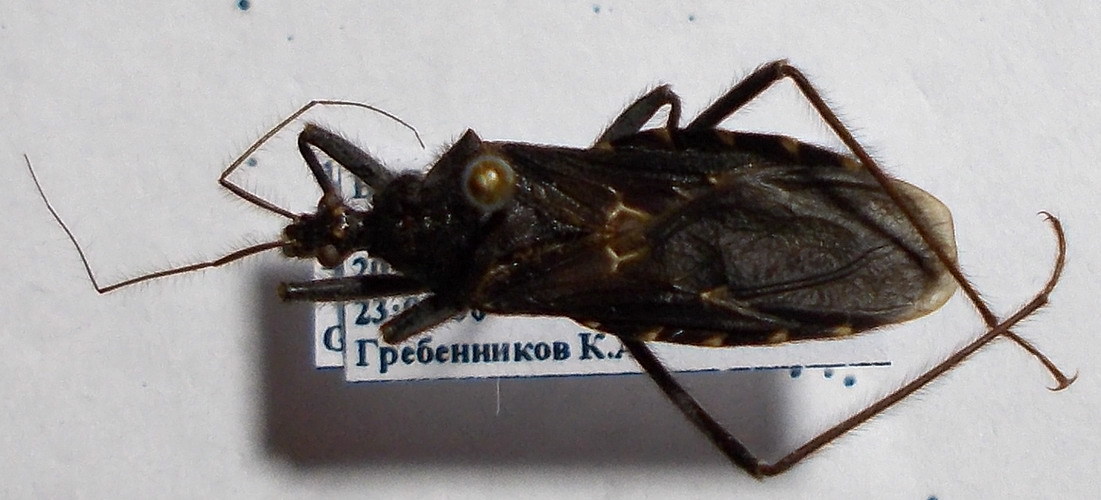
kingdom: Animalia
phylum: Arthropoda
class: Insecta
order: Hemiptera
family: Reduviidae
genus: Holotrichius
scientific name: Holotrichius bergrothi
